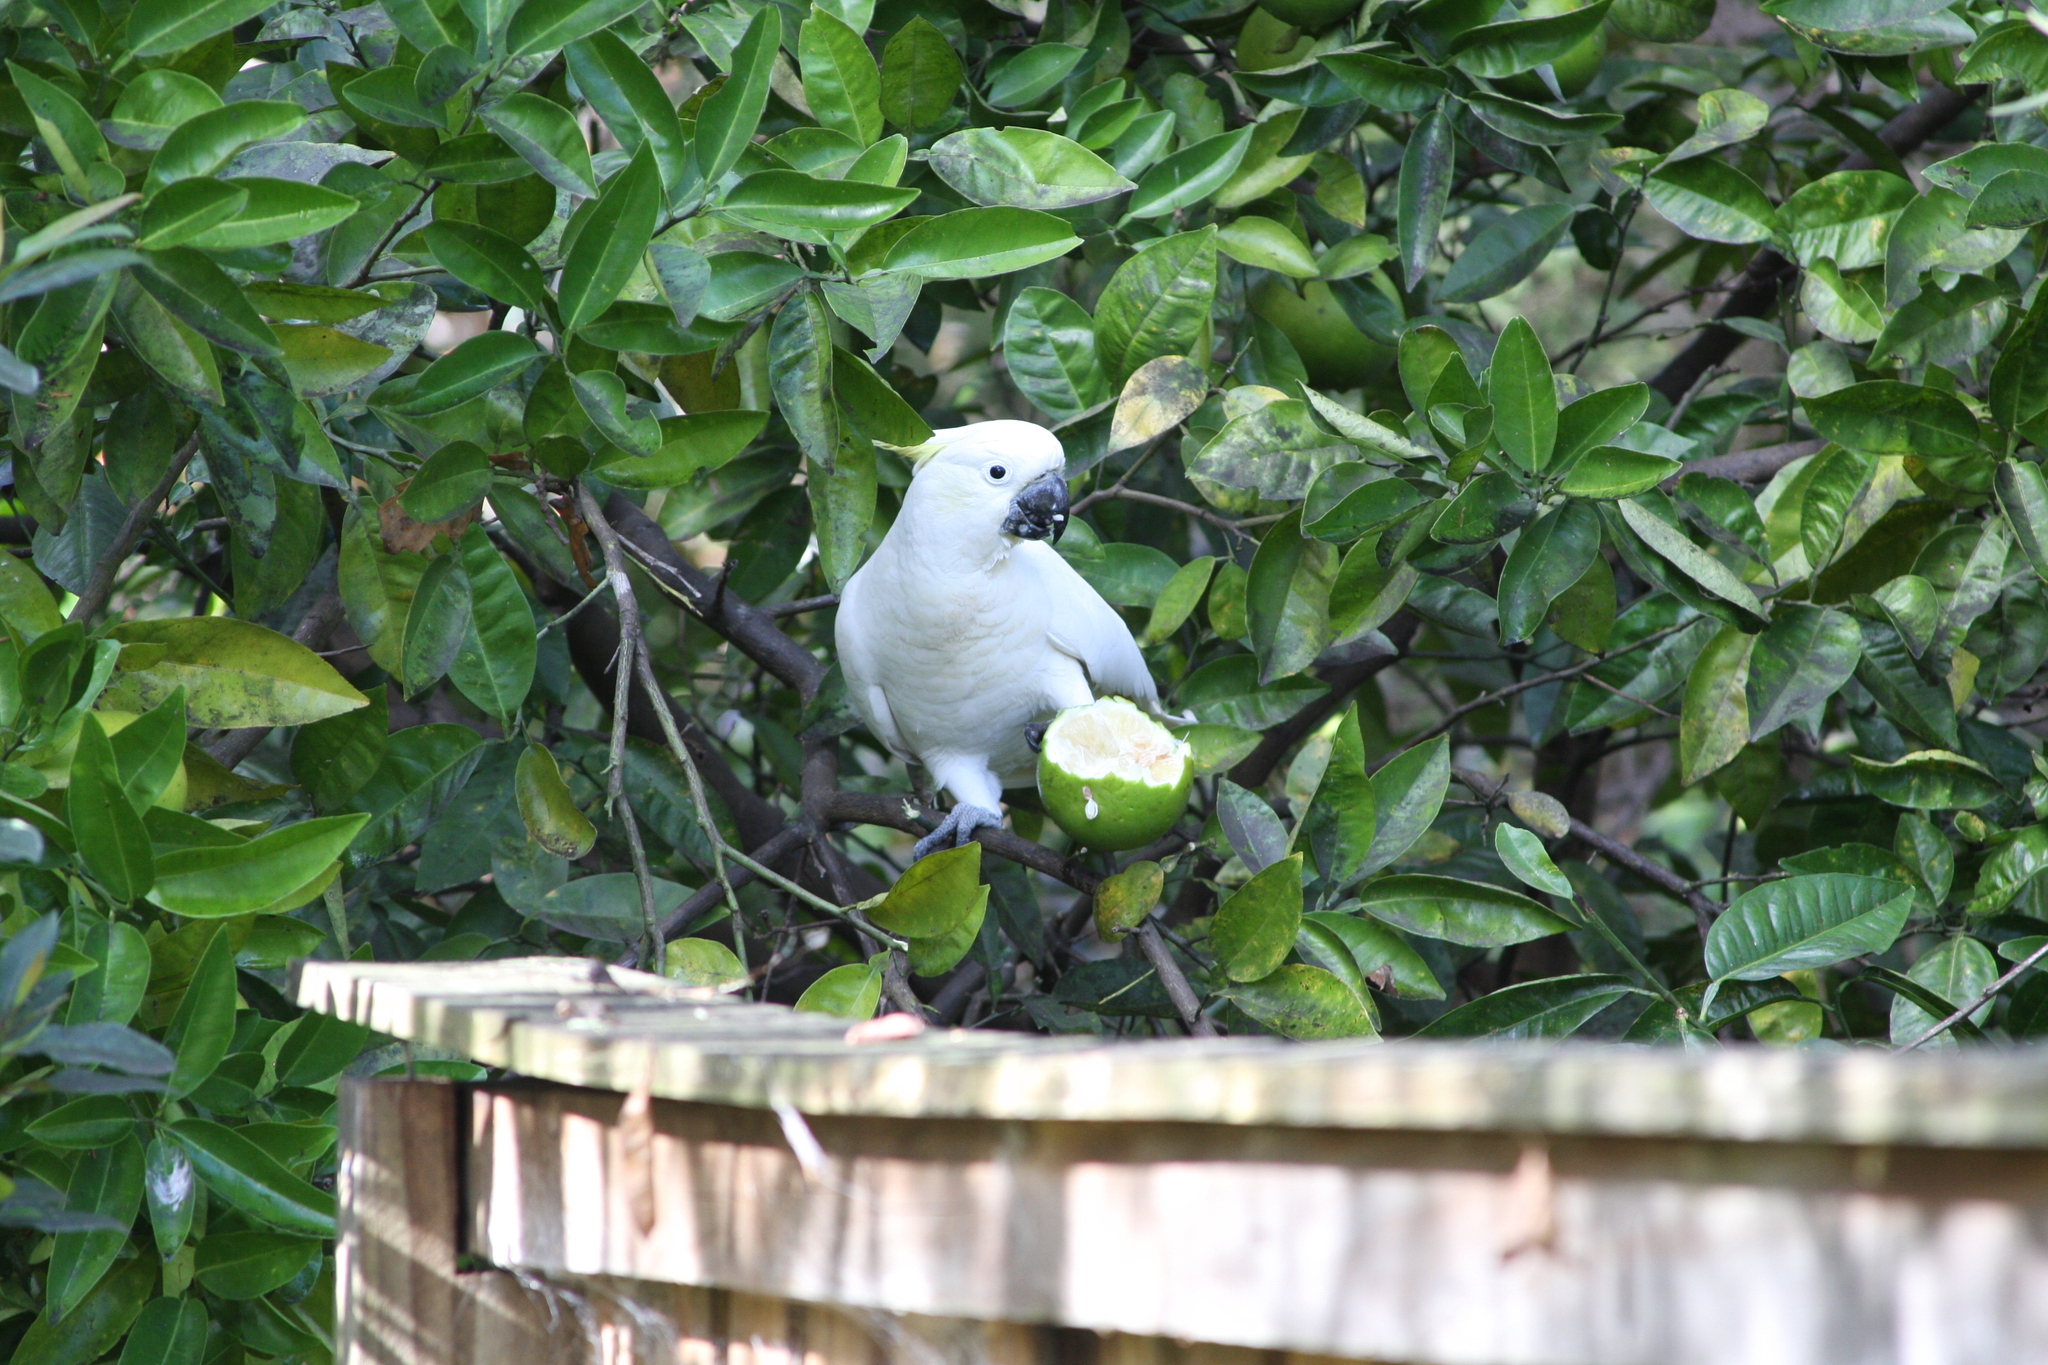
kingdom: Animalia
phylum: Chordata
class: Aves
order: Psittaciformes
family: Psittacidae
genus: Cacatua
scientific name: Cacatua galerita
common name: Sulphur-crested cockatoo
